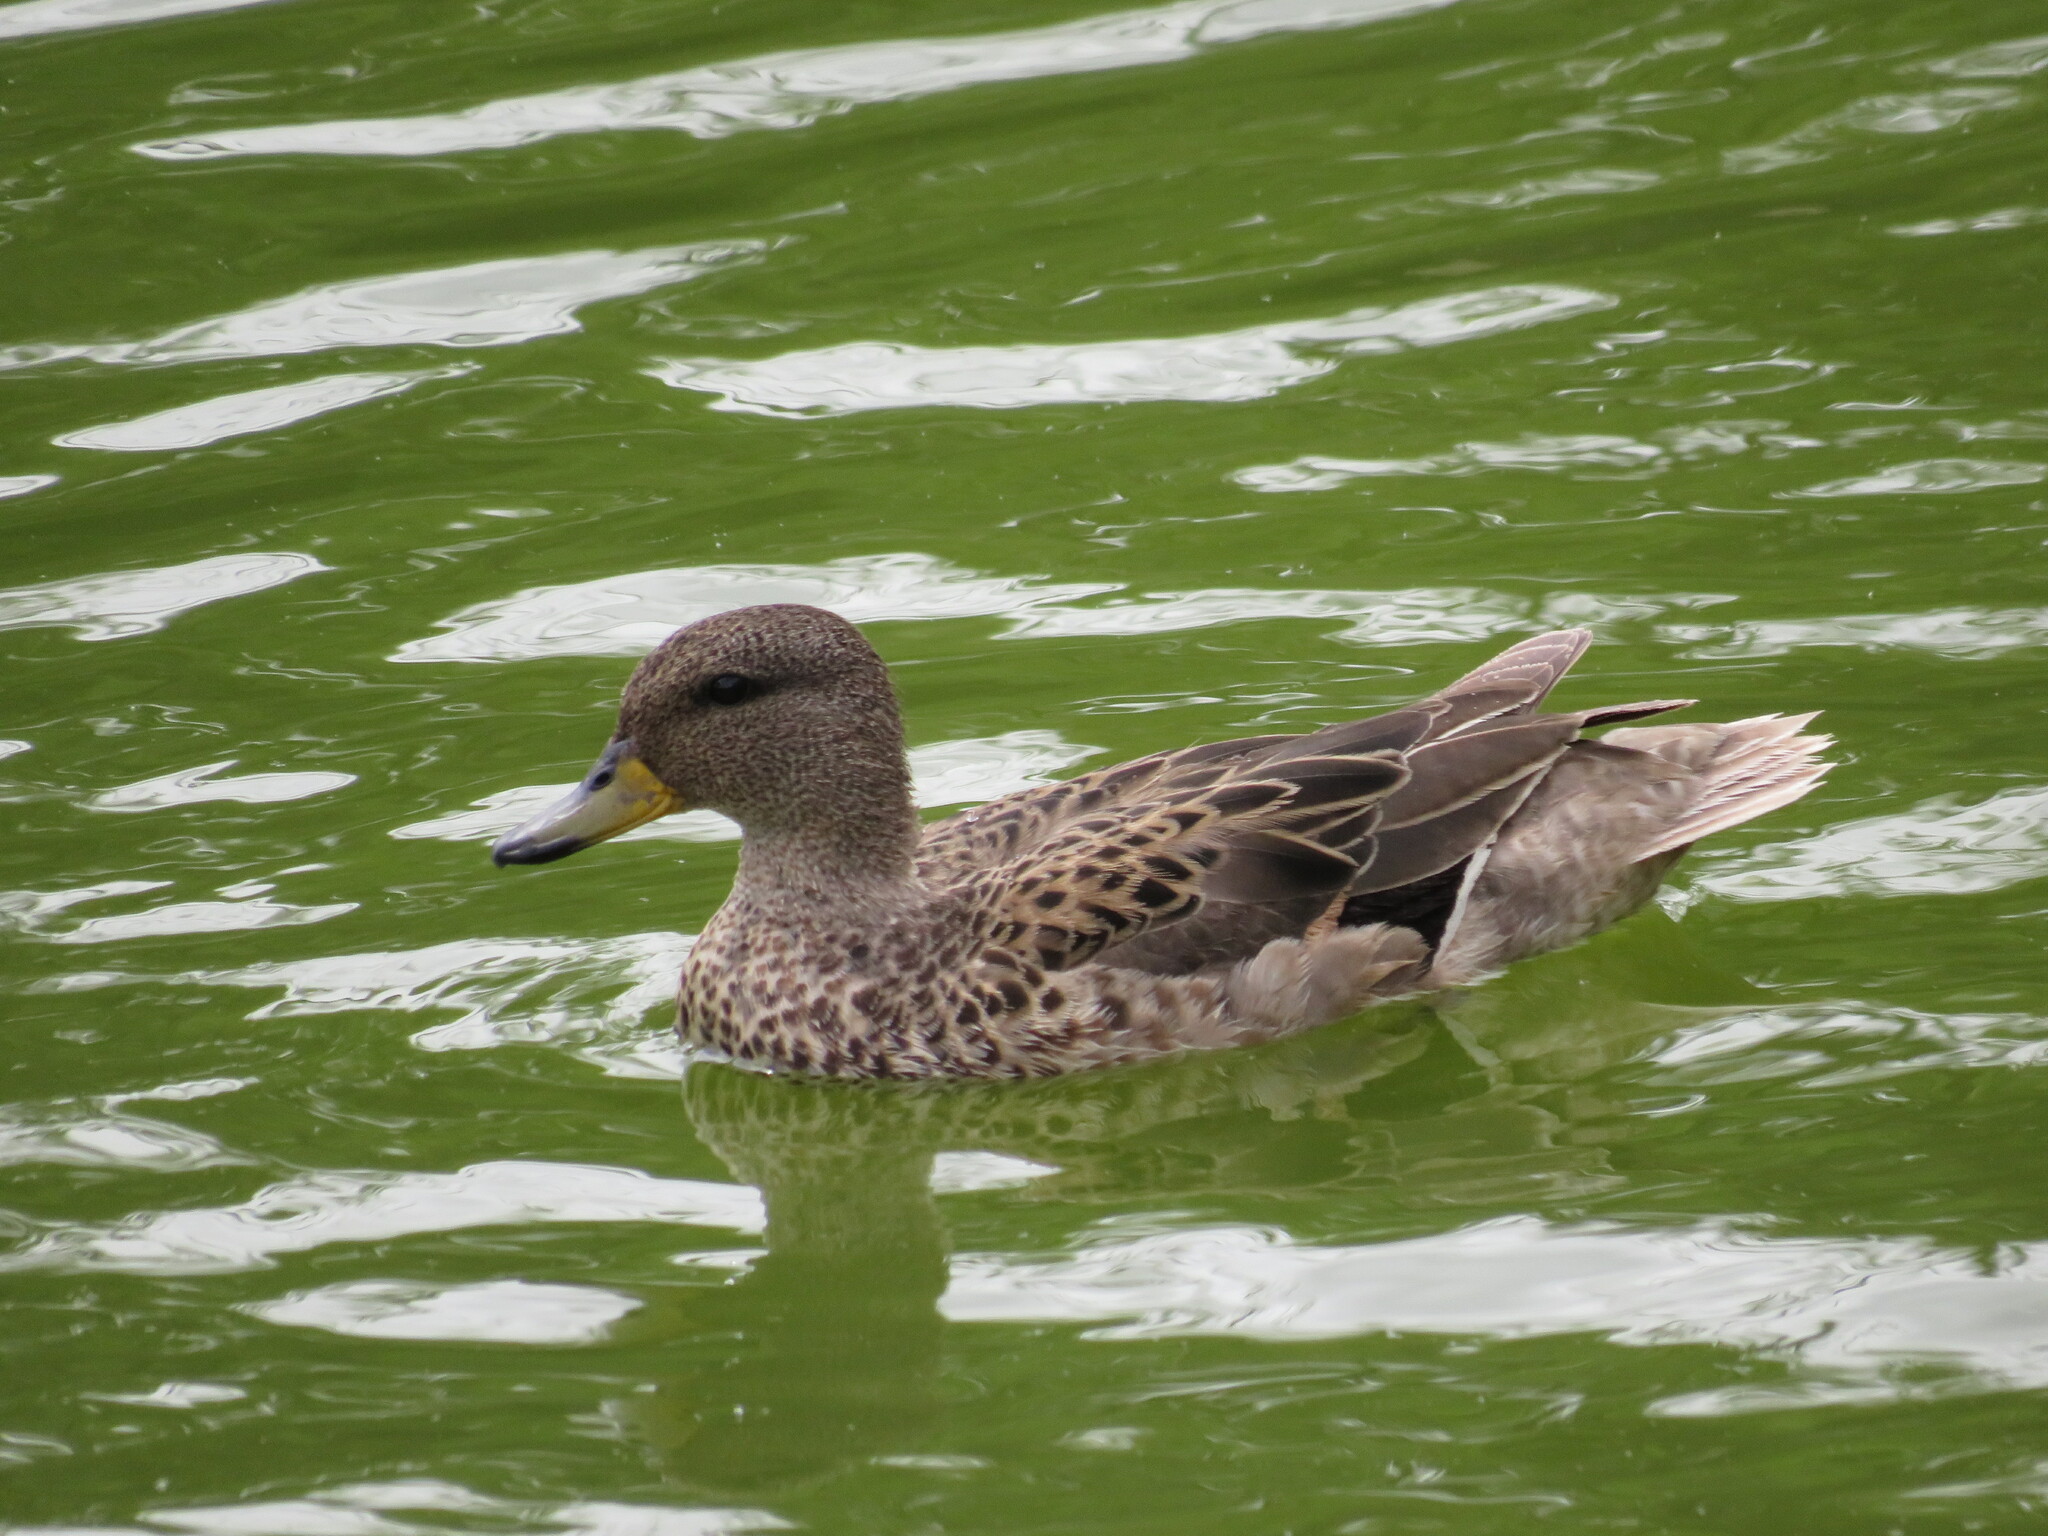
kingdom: Animalia
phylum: Chordata
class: Aves
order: Anseriformes
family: Anatidae
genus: Anas
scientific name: Anas flavirostris
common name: Yellow-billed teal
